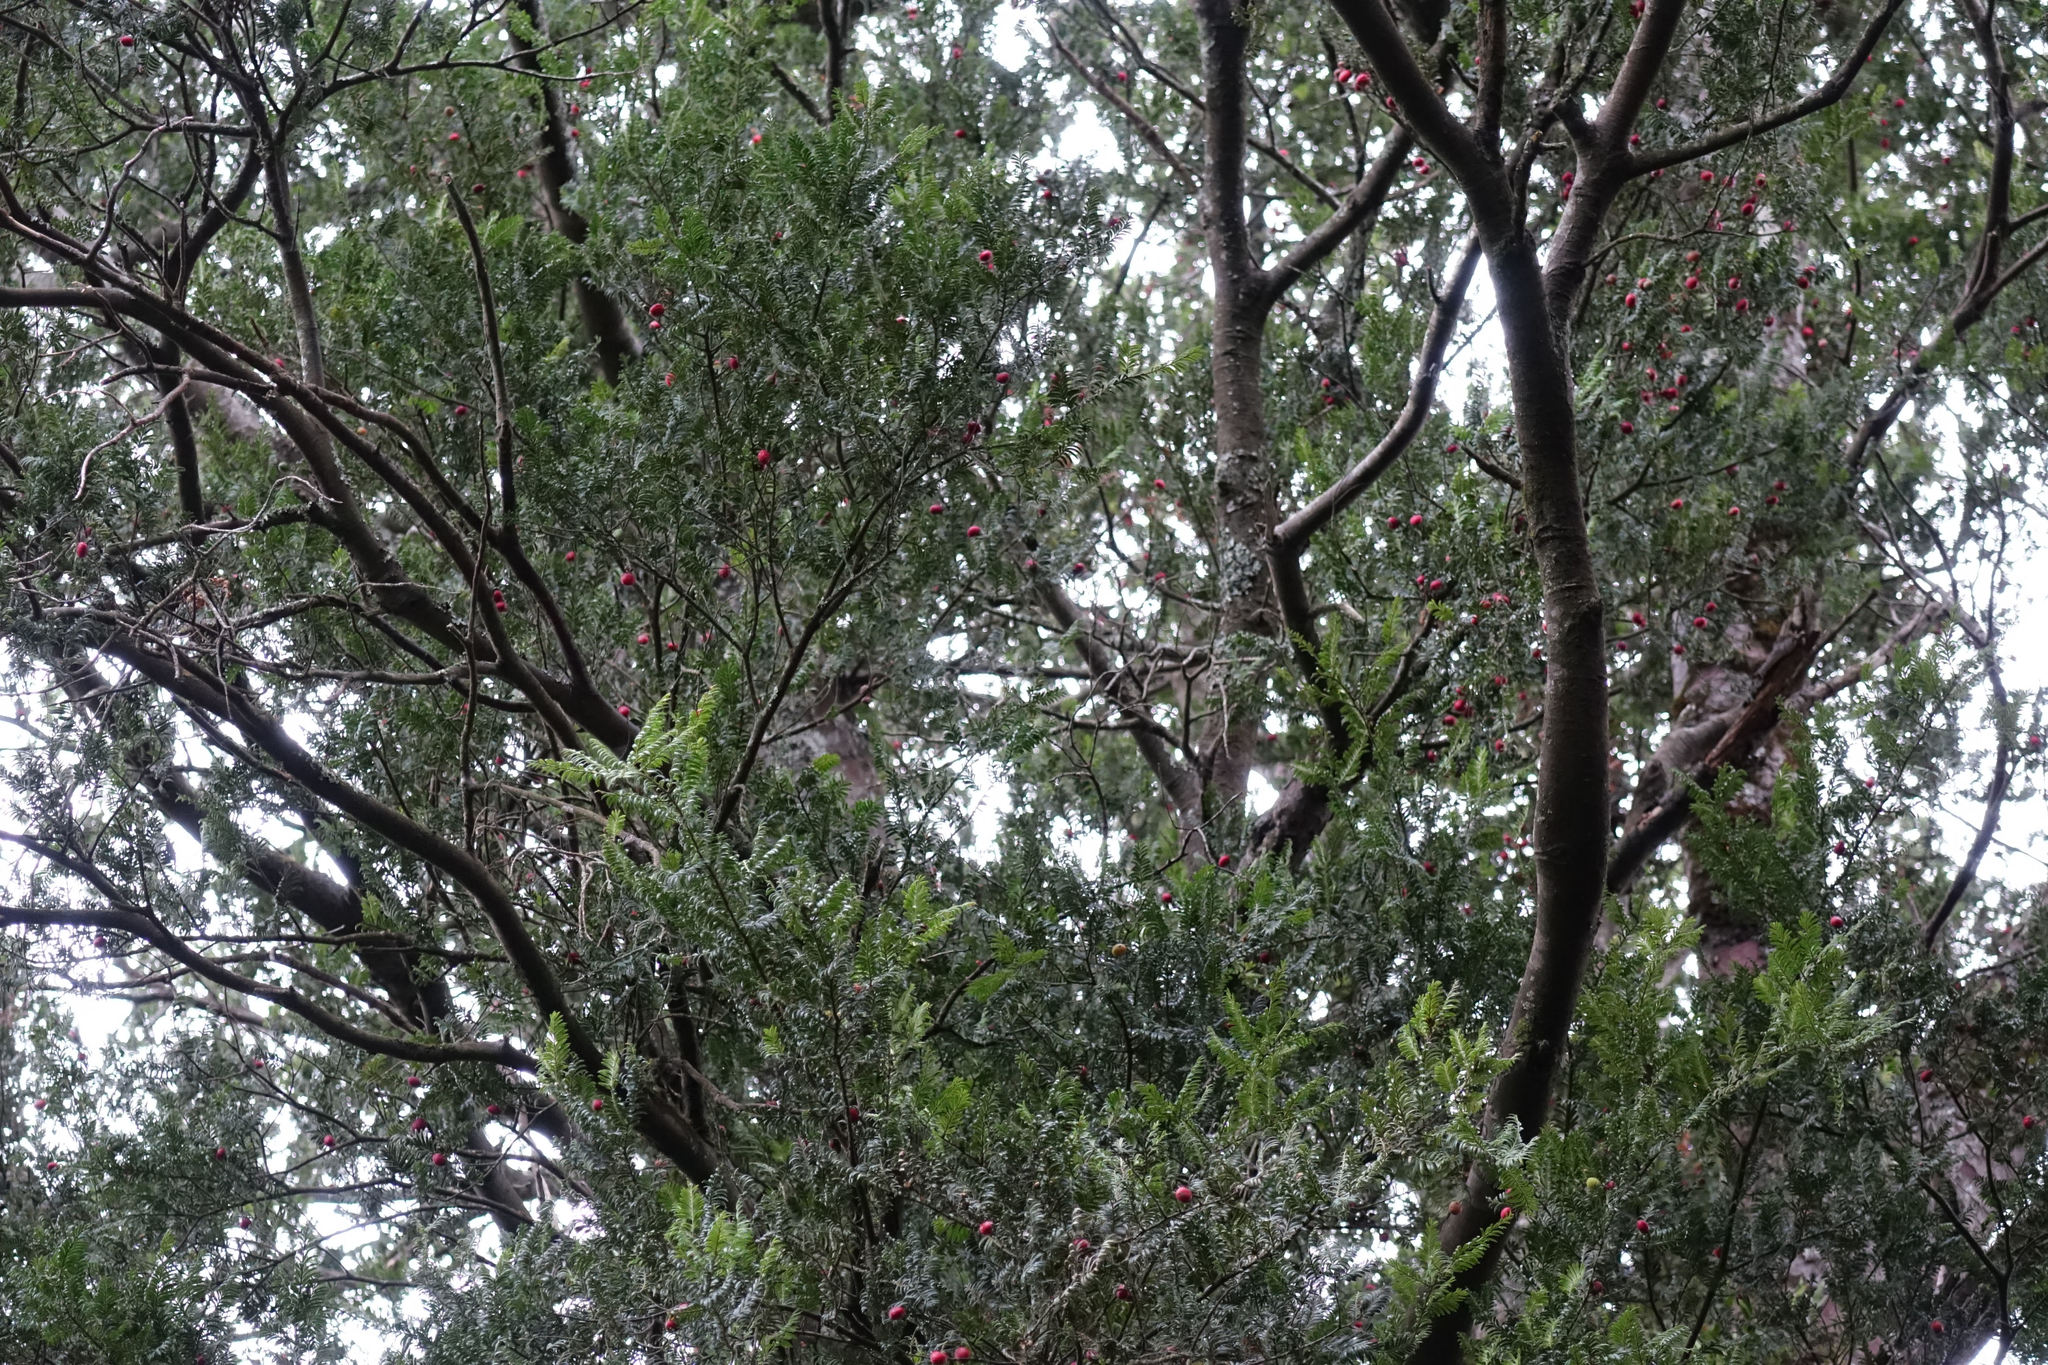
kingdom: Plantae
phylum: Tracheophyta
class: Pinopsida
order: Pinales
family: Podocarpaceae
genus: Prumnopitys
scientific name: Prumnopitys ferruginea
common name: Brown pine
